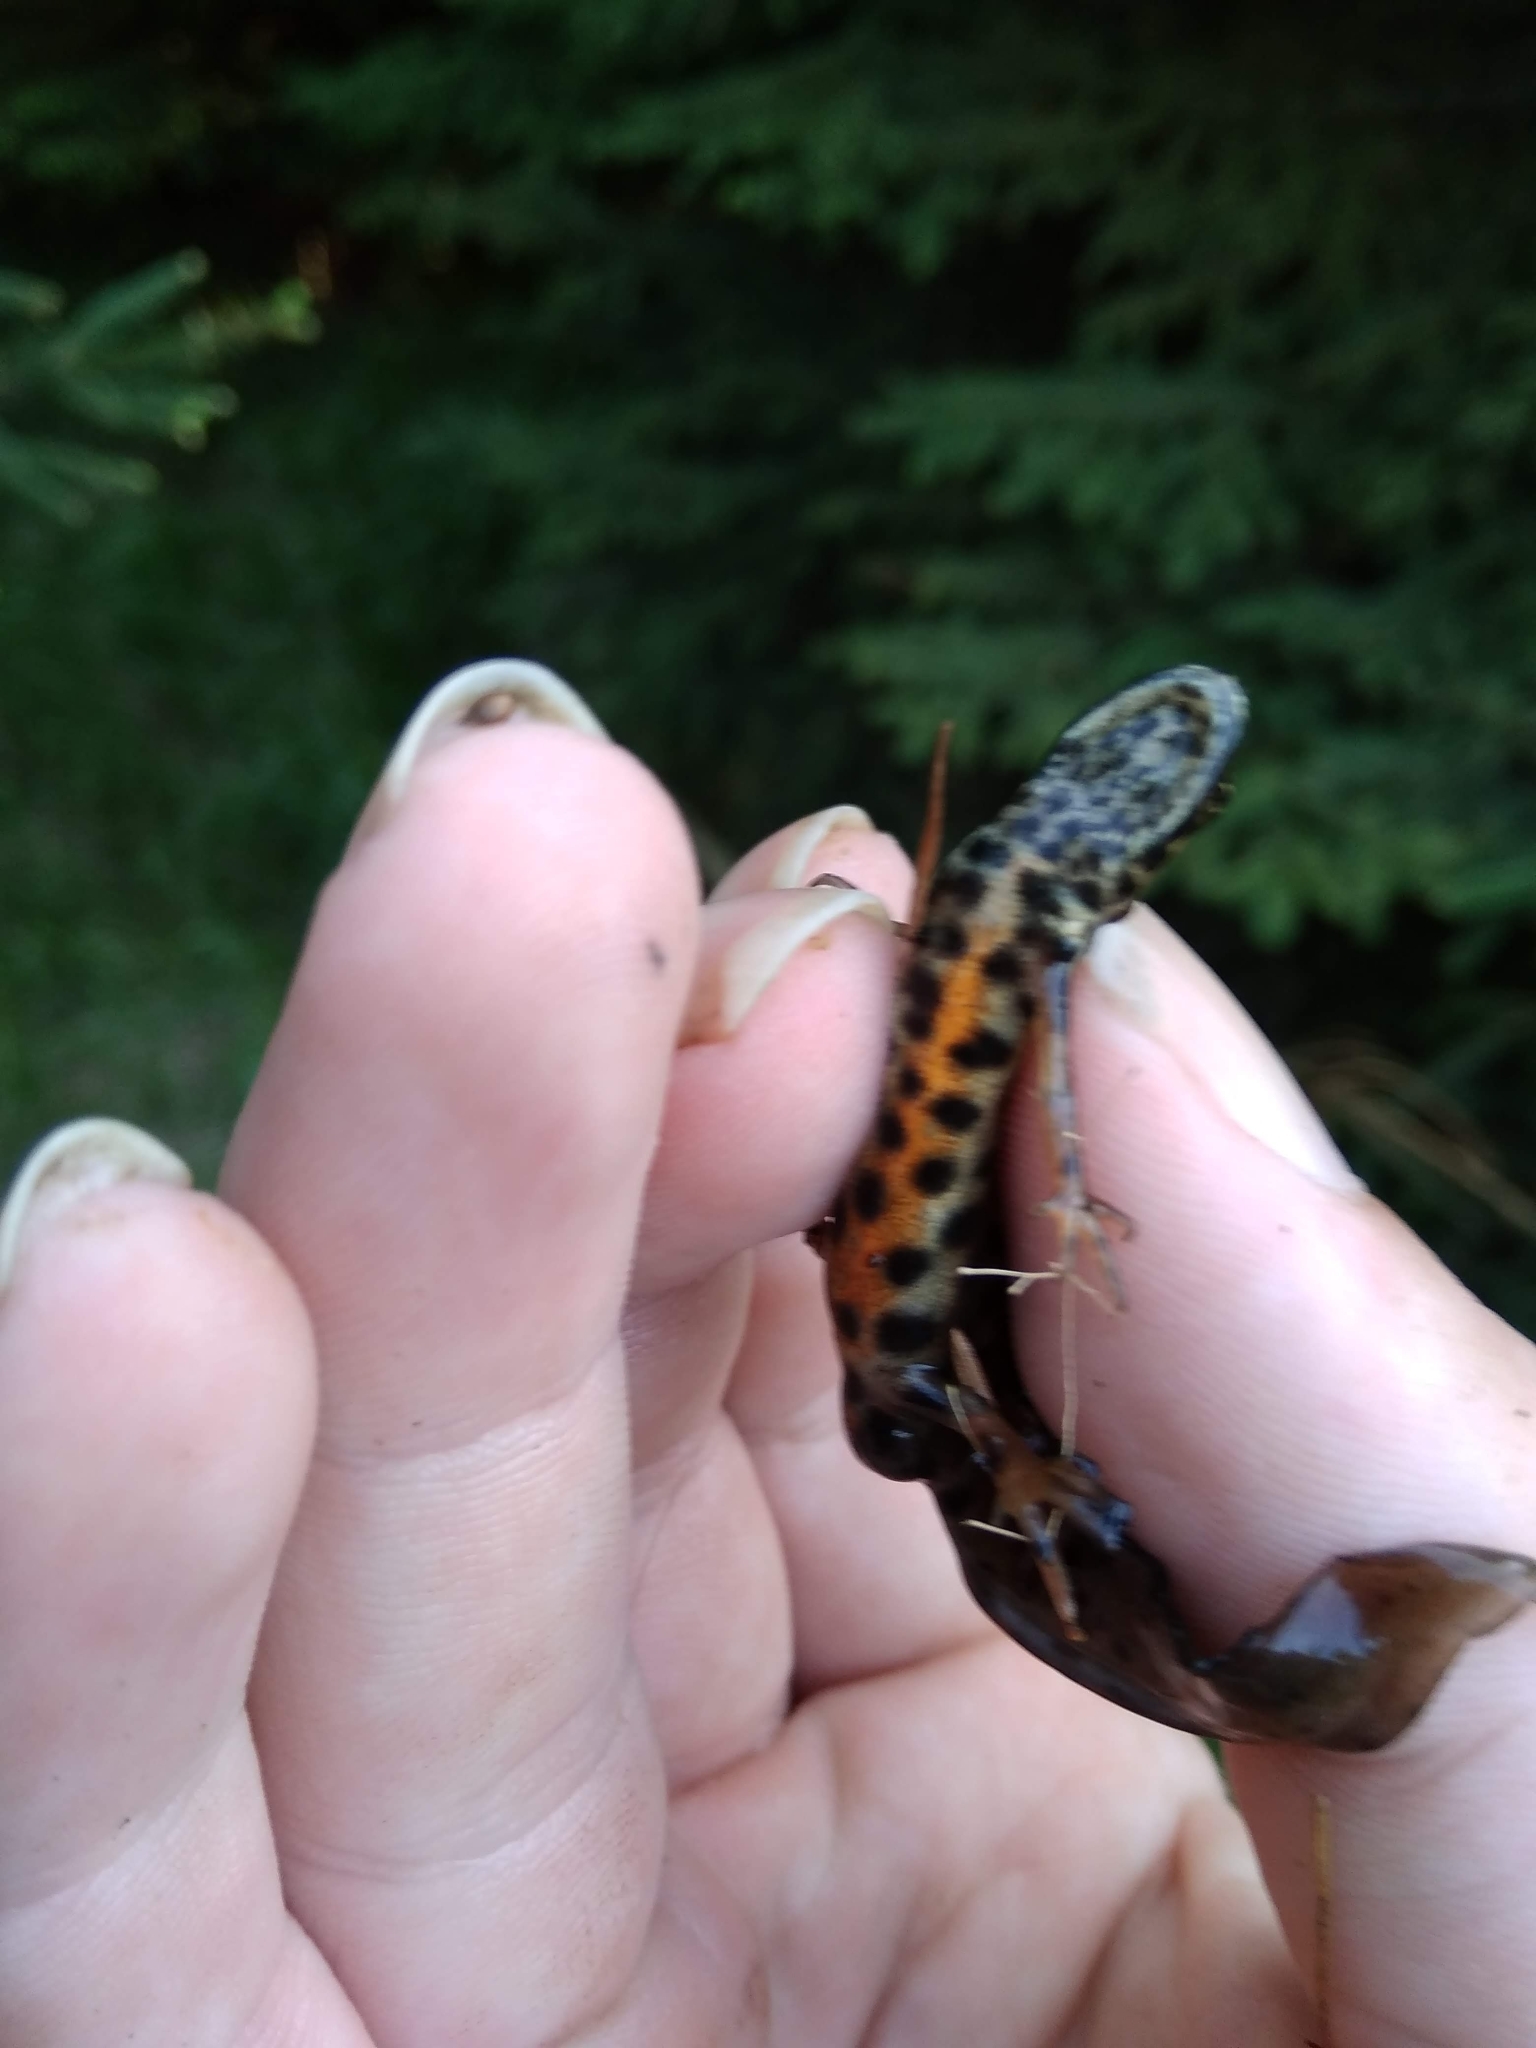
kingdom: Animalia
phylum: Chordata
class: Amphibia
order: Caudata
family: Salamandridae
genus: Lissotriton
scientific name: Lissotriton vulgaris
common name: Smooth newt
